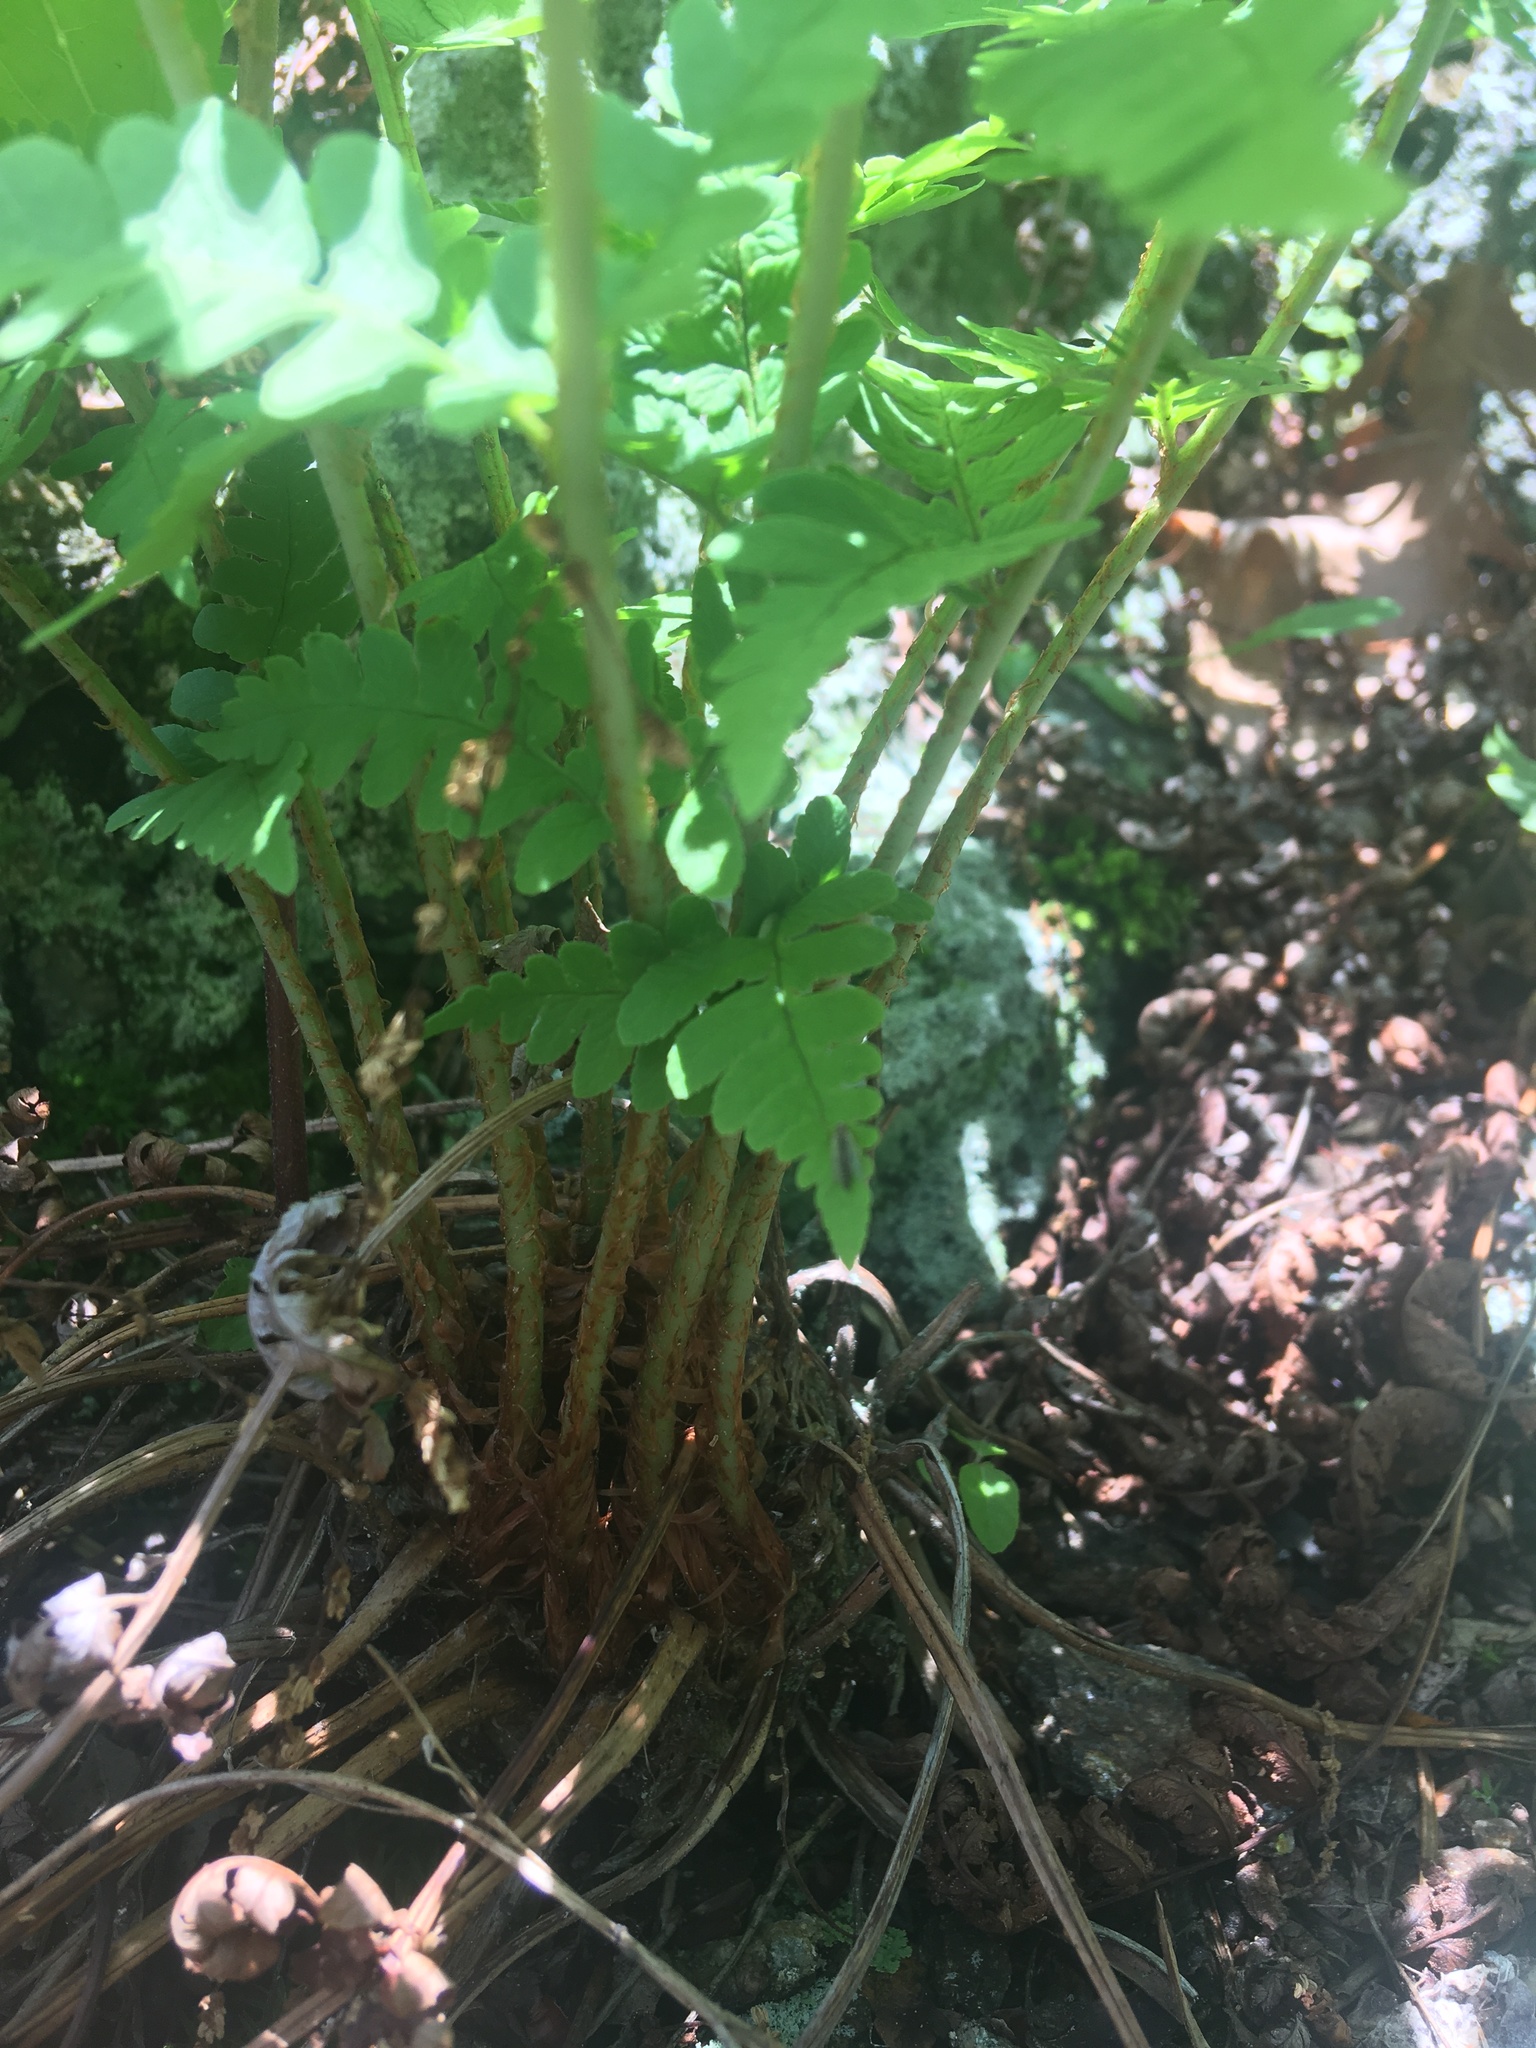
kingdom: Plantae
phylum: Tracheophyta
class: Polypodiopsida
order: Polypodiales
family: Dryopteridaceae
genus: Dryopteris
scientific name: Dryopteris marginalis
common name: Marginal wood fern
